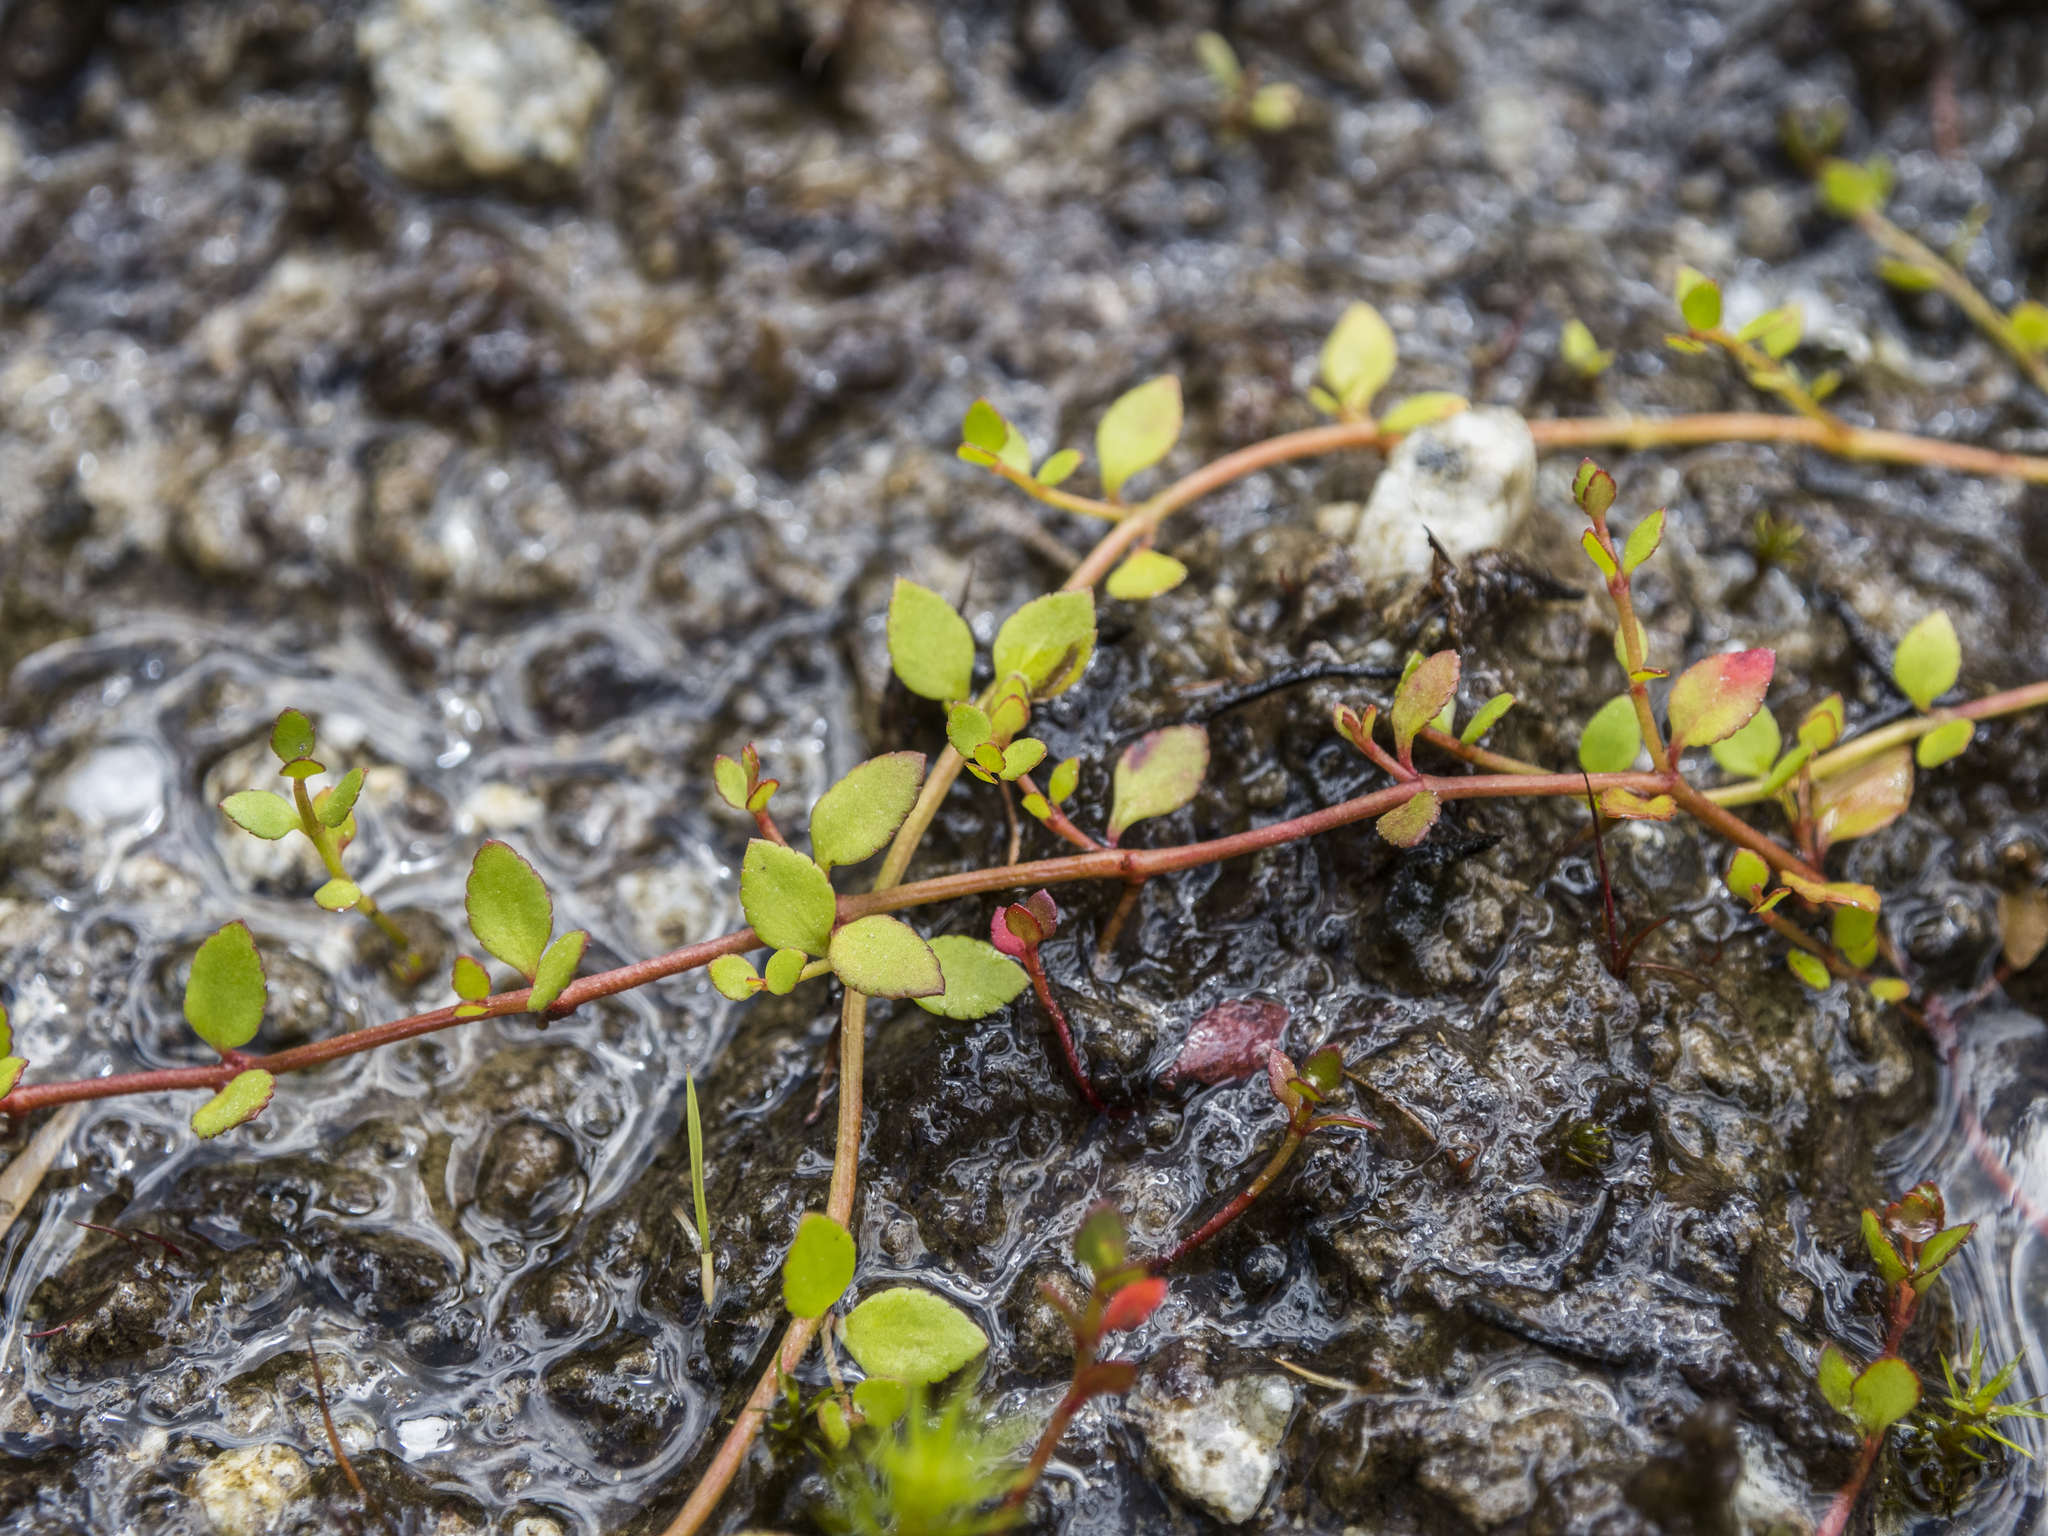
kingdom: Plantae
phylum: Tracheophyta
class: Magnoliopsida
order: Saxifragales
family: Haloragaceae
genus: Gonocarpus
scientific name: Gonocarpus micranthus
